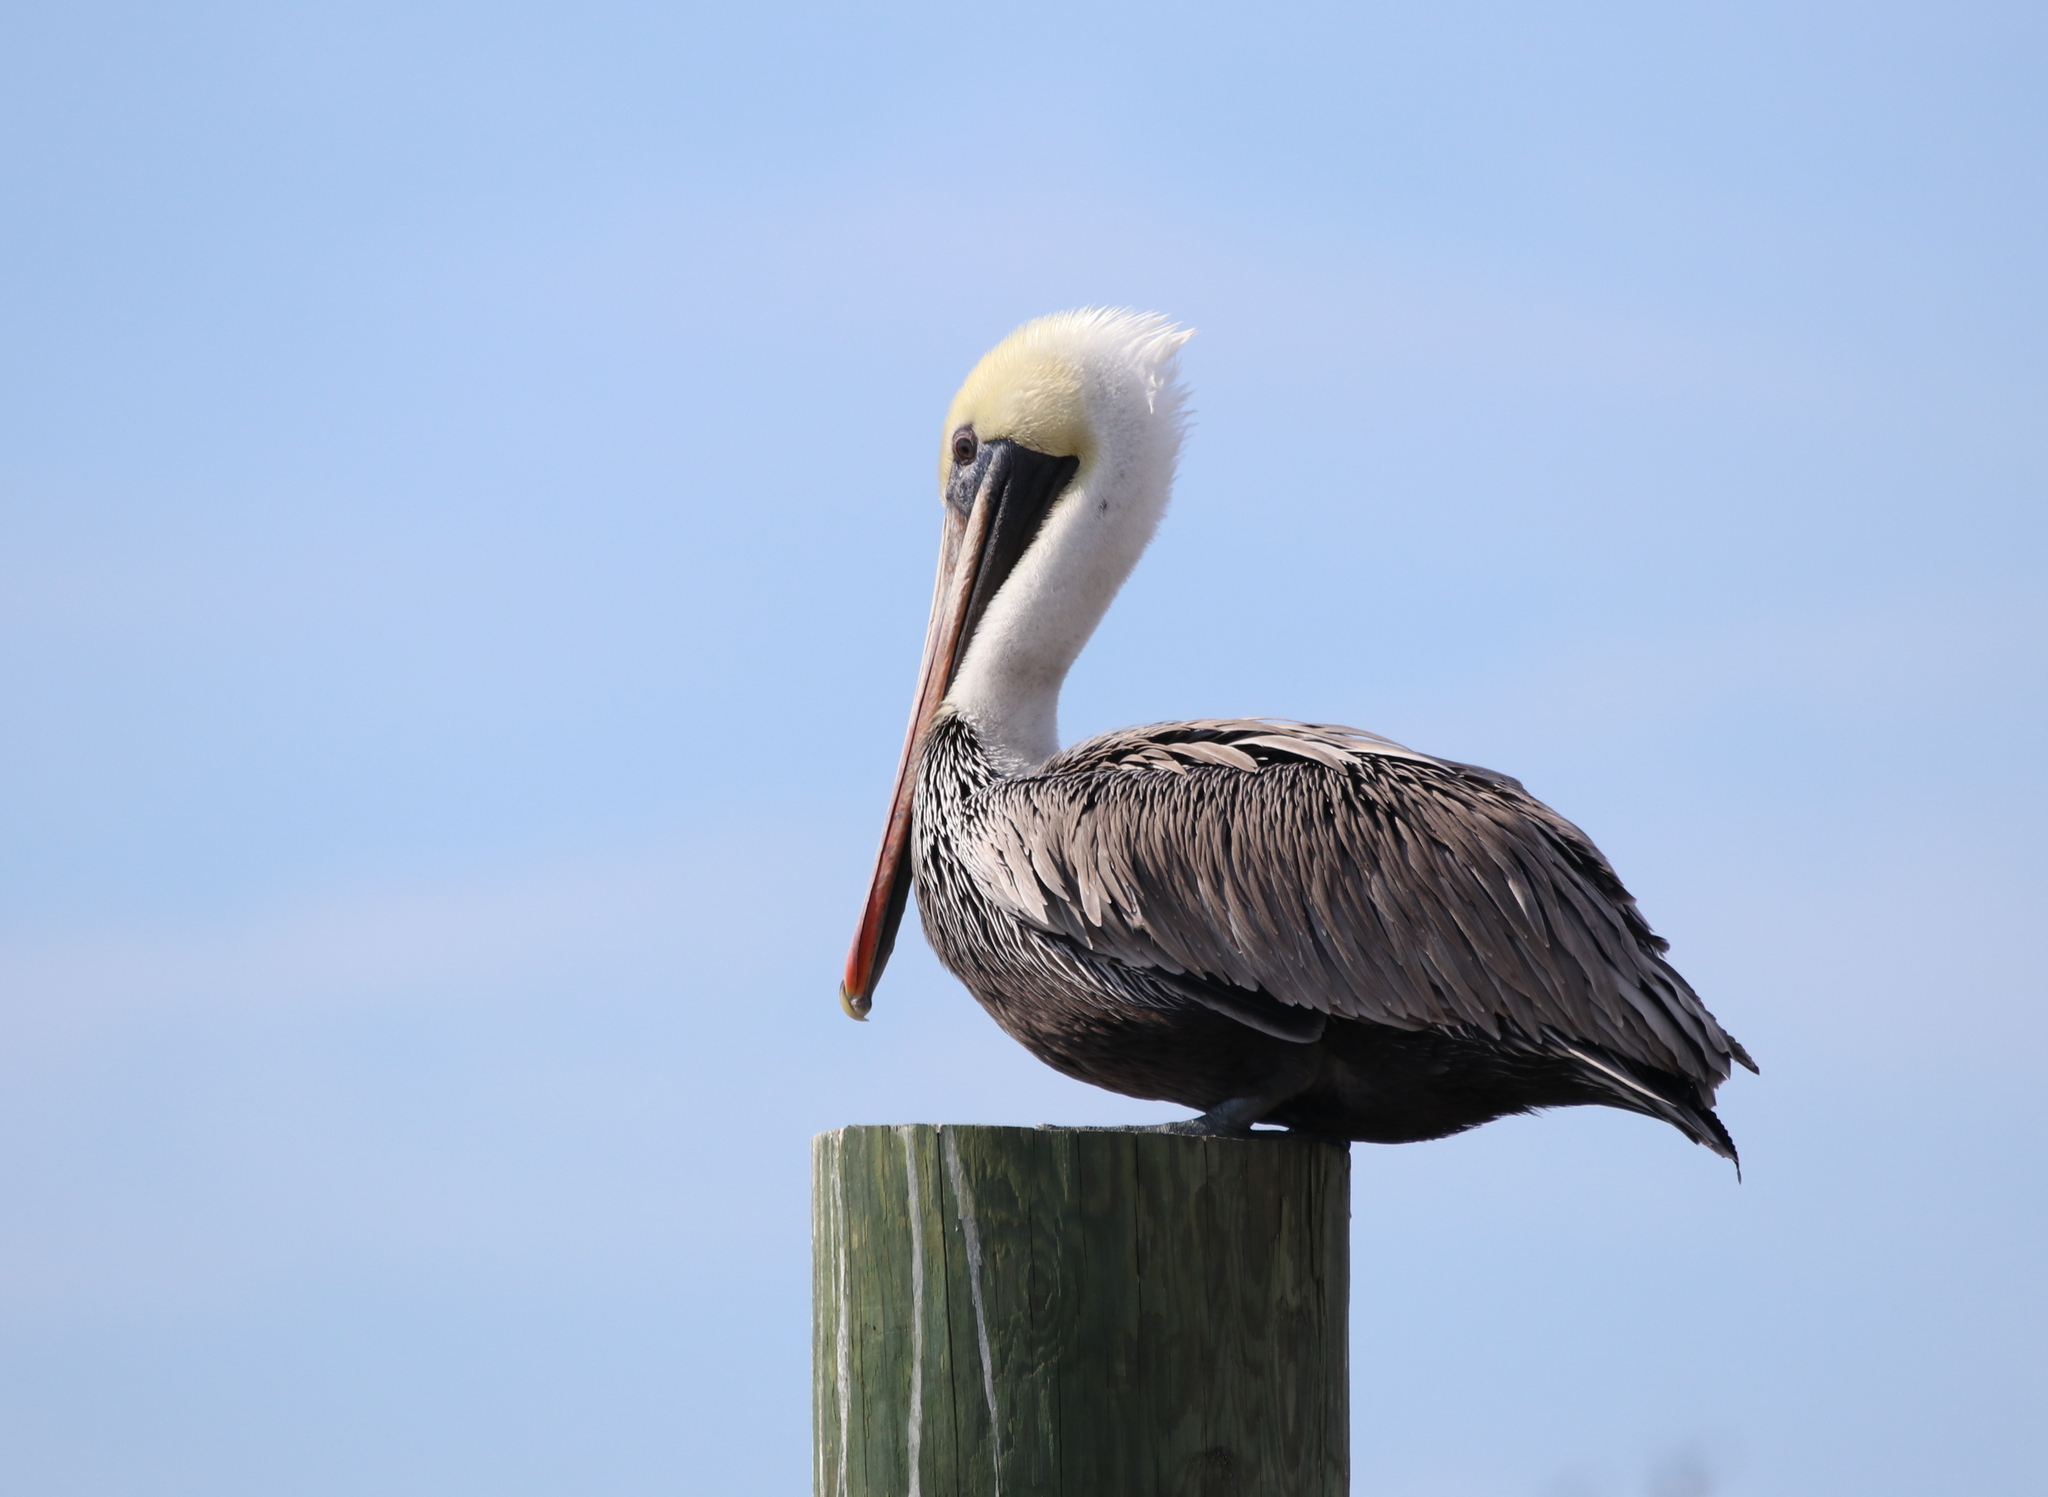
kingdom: Animalia
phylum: Chordata
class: Aves
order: Pelecaniformes
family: Pelecanidae
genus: Pelecanus
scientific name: Pelecanus occidentalis
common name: Brown pelican
